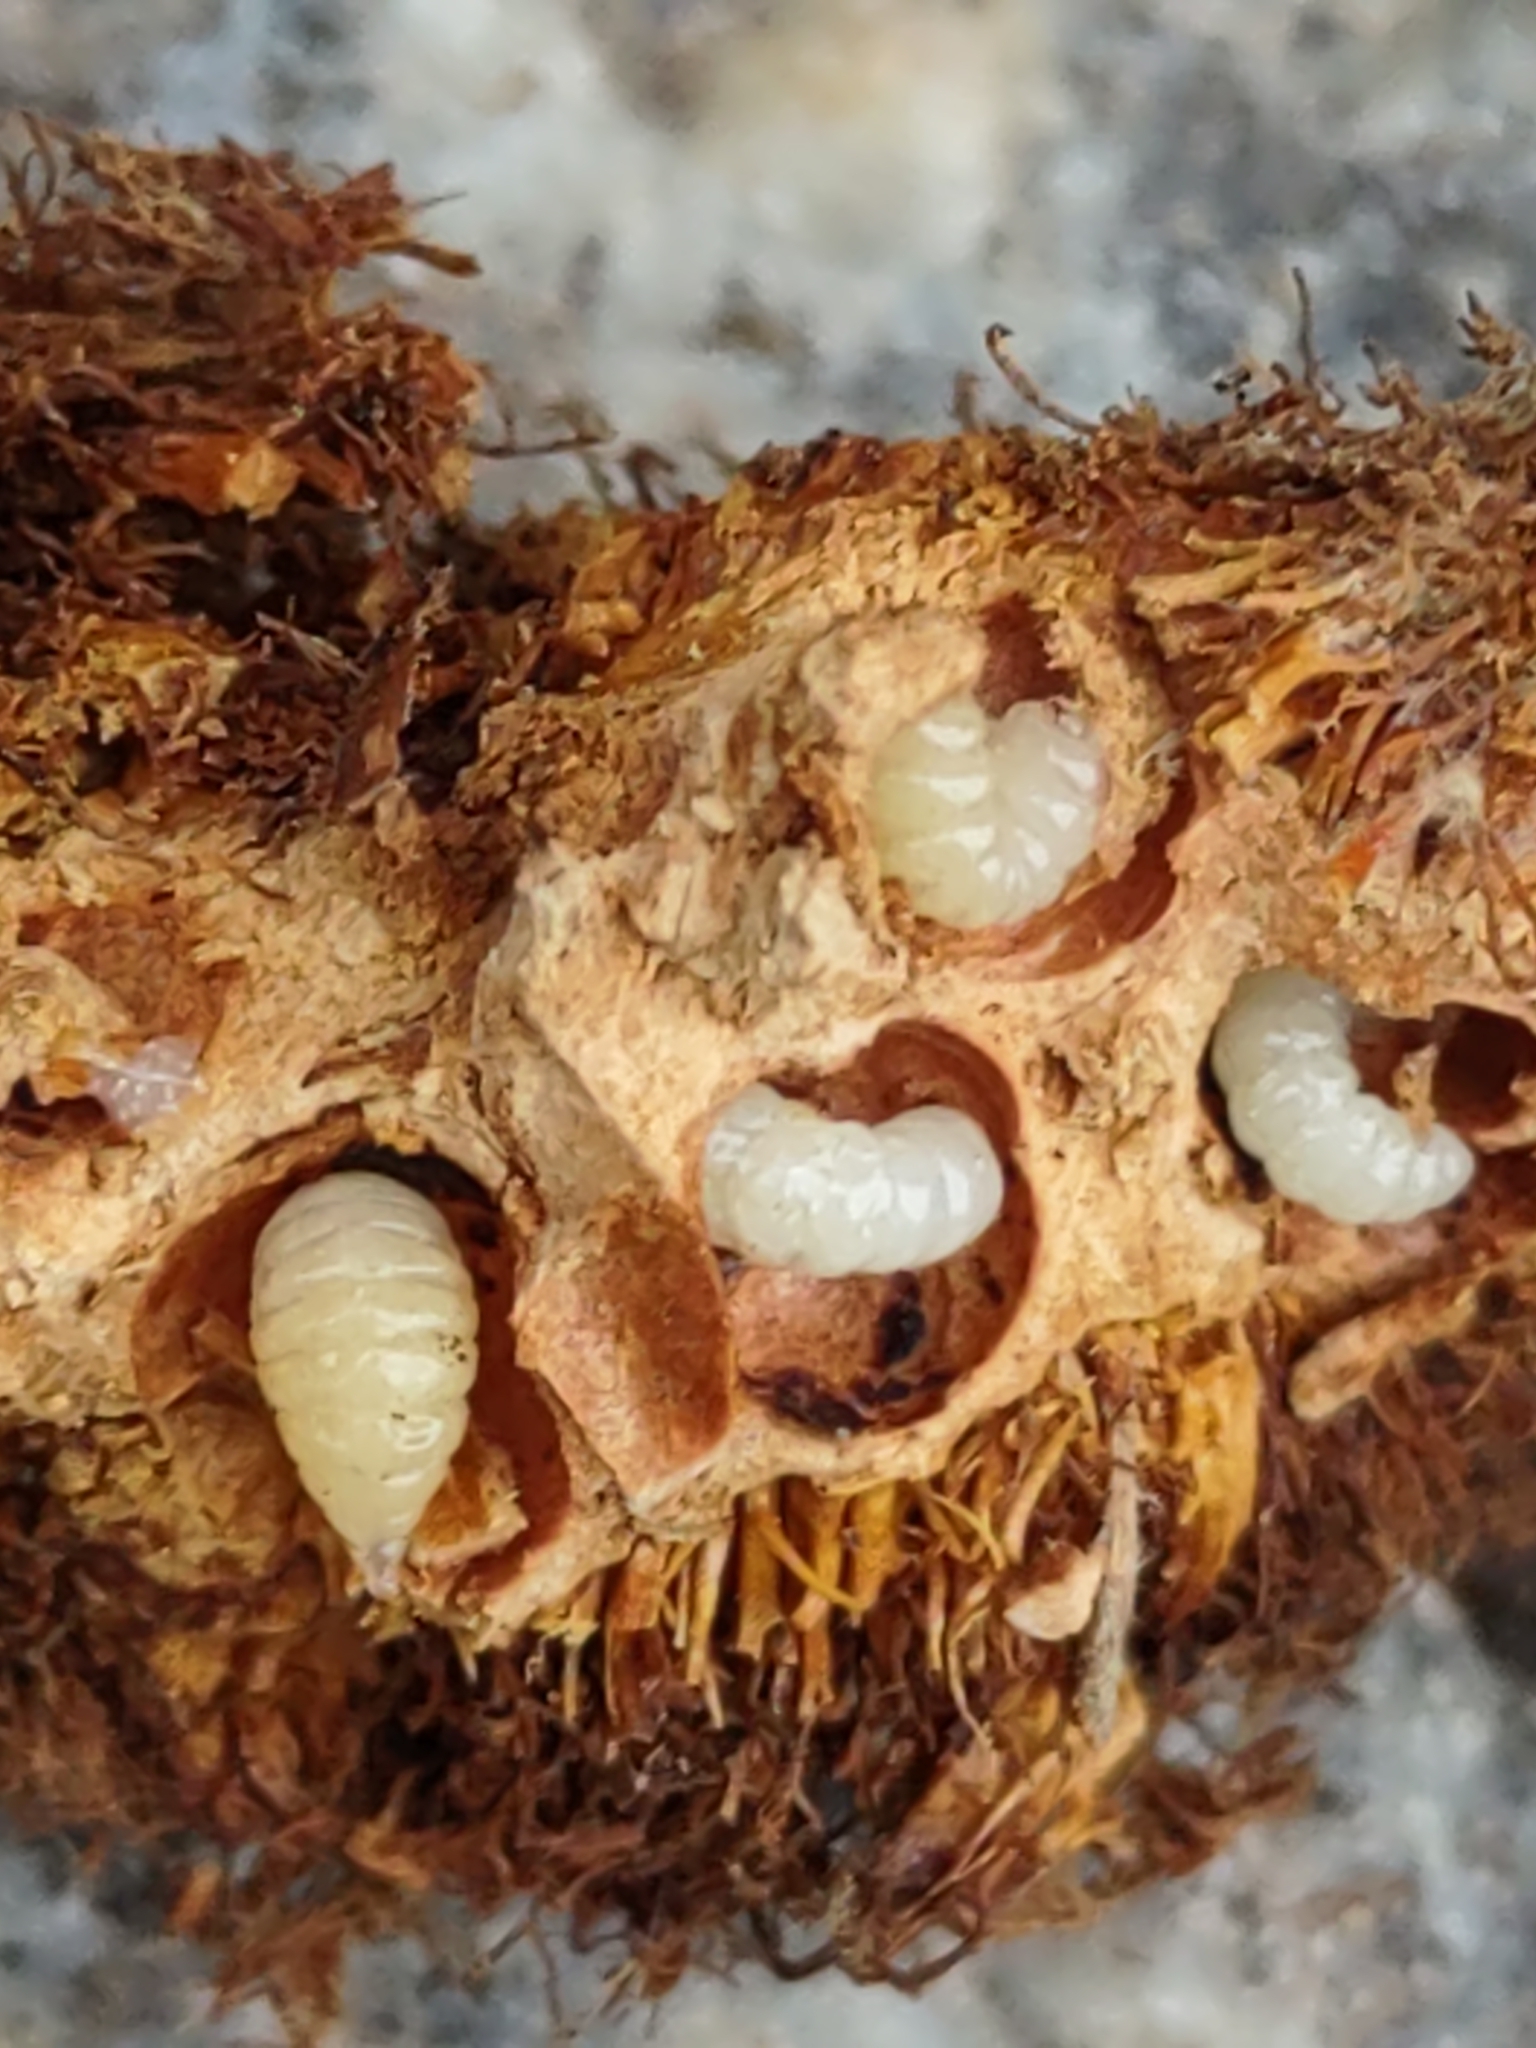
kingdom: Animalia
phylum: Arthropoda
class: Insecta
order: Hymenoptera
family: Cynipidae
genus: Diplolepis
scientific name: Diplolepis rosae
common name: Bedeguar gall
